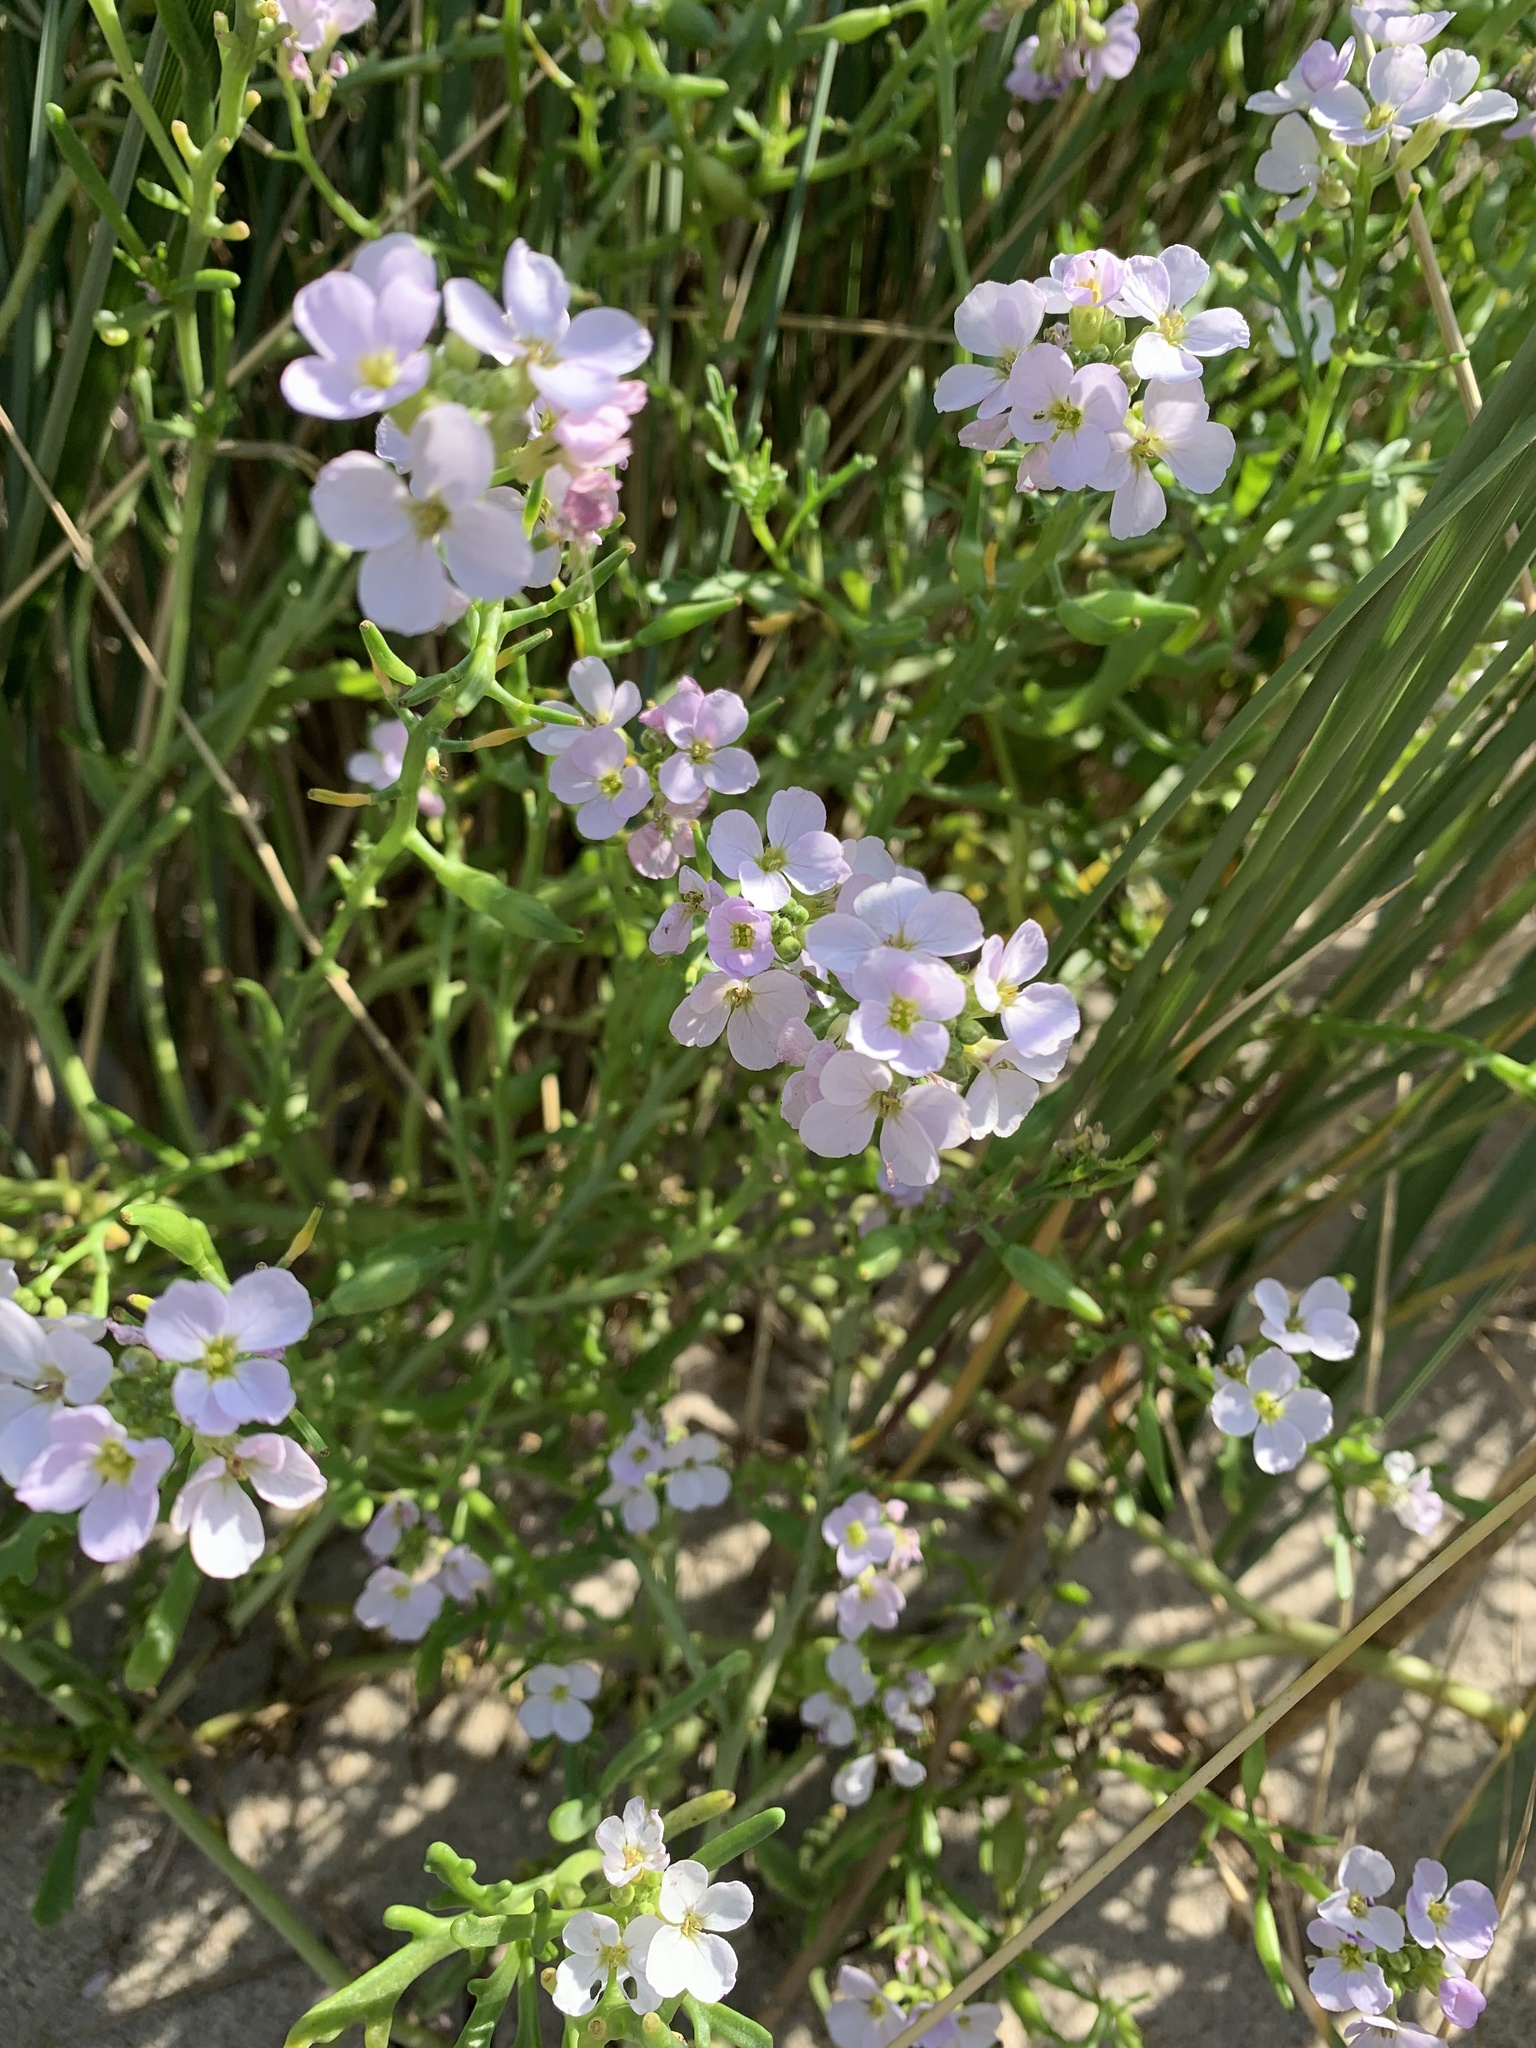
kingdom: Plantae
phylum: Tracheophyta
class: Magnoliopsida
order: Brassicales
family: Brassicaceae
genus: Cakile
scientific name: Cakile maritima
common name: Sea rocket
